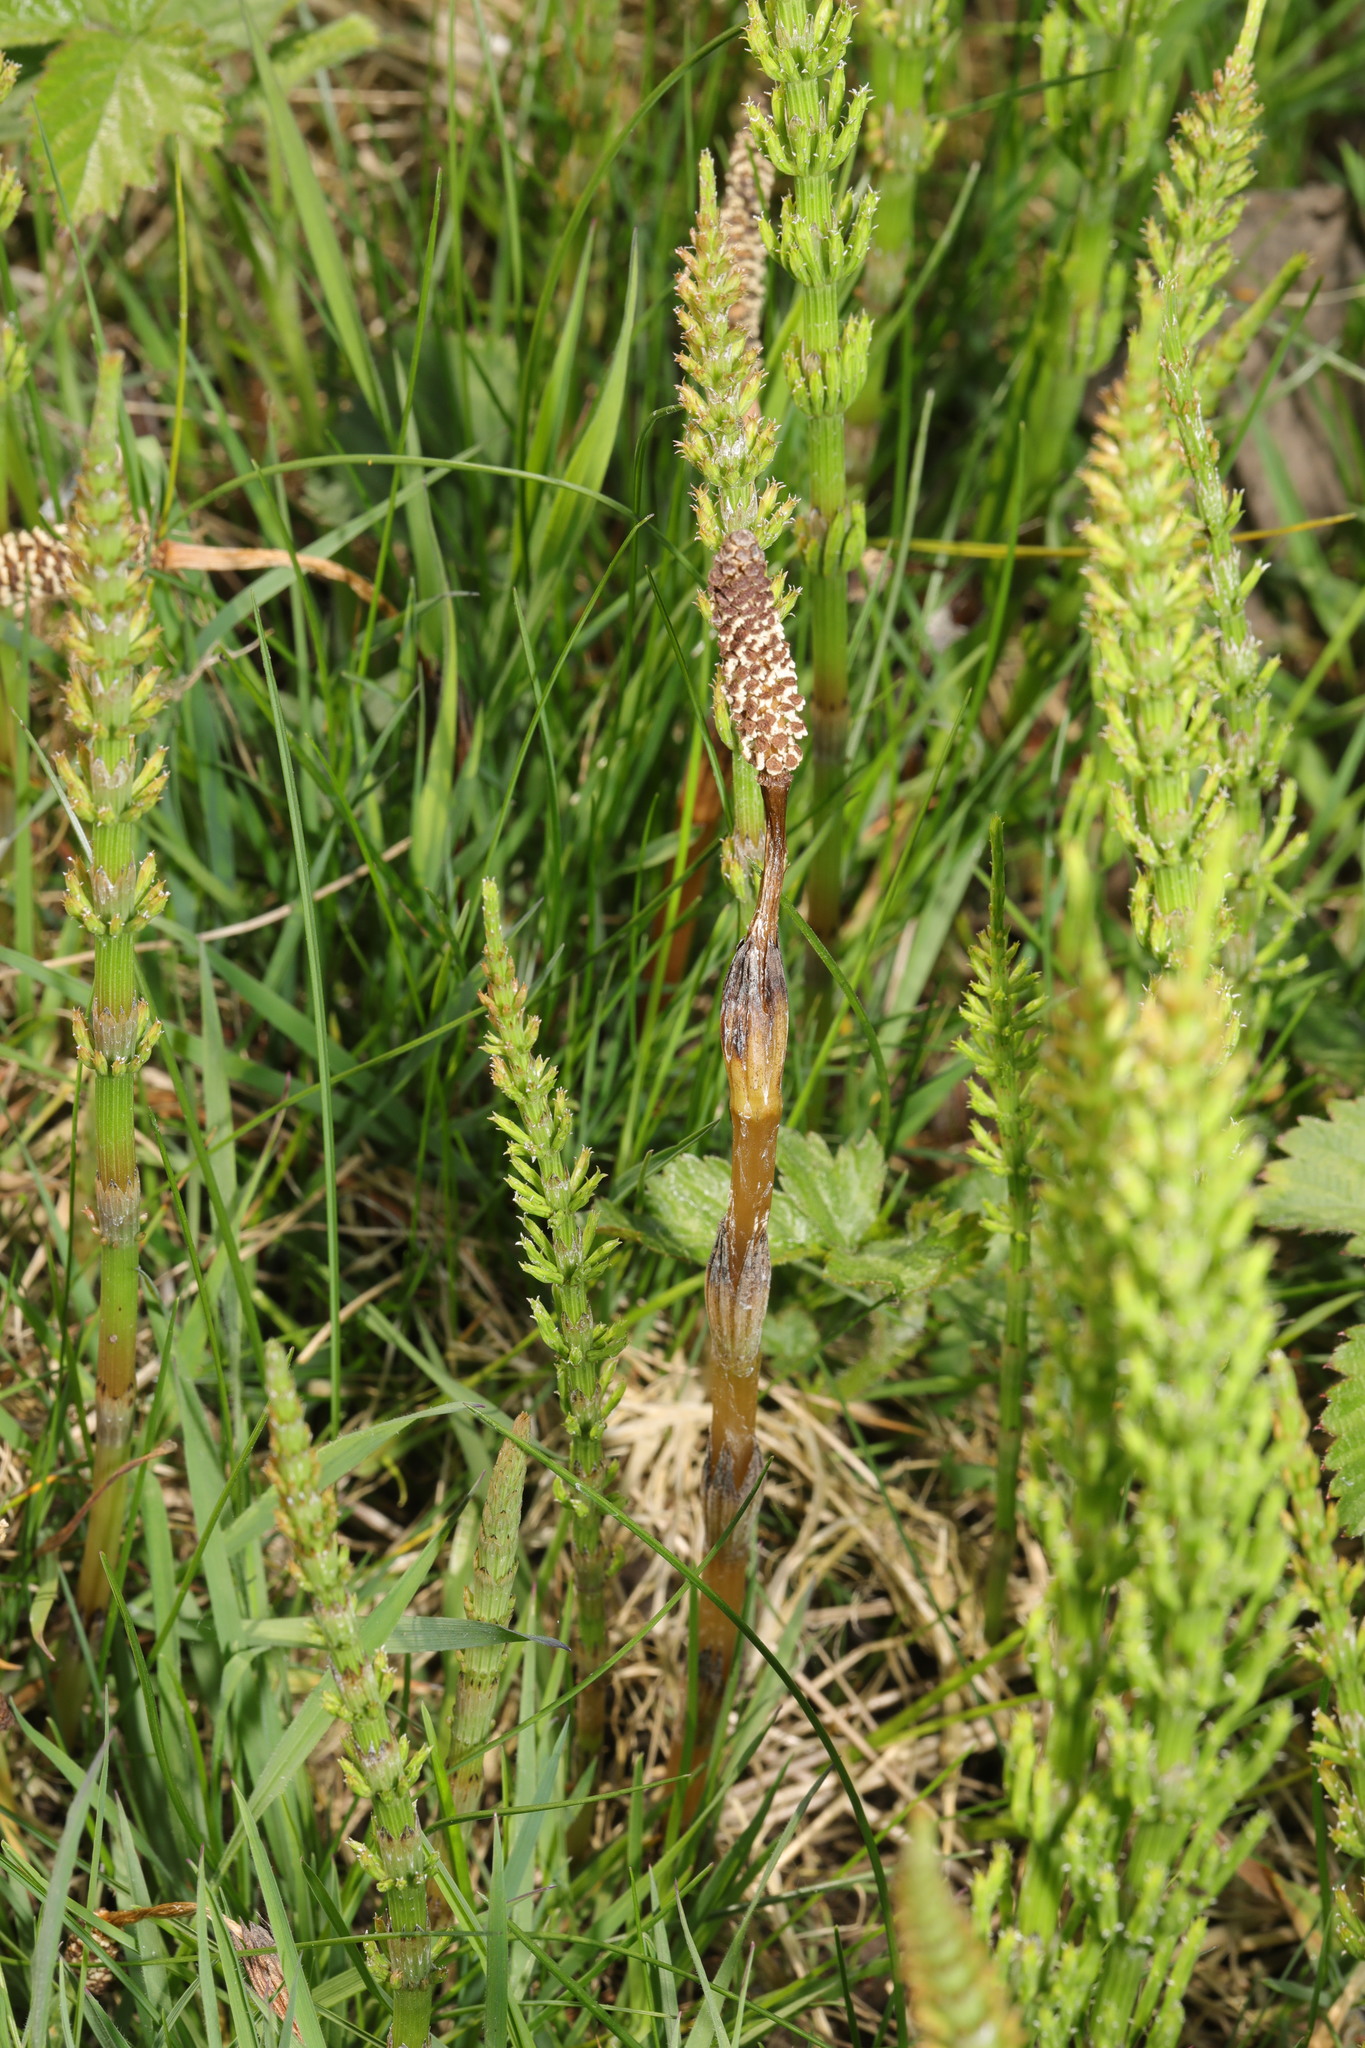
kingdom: Plantae
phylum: Tracheophyta
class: Polypodiopsida
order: Equisetales
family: Equisetaceae
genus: Equisetum
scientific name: Equisetum arvense
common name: Field horsetail
